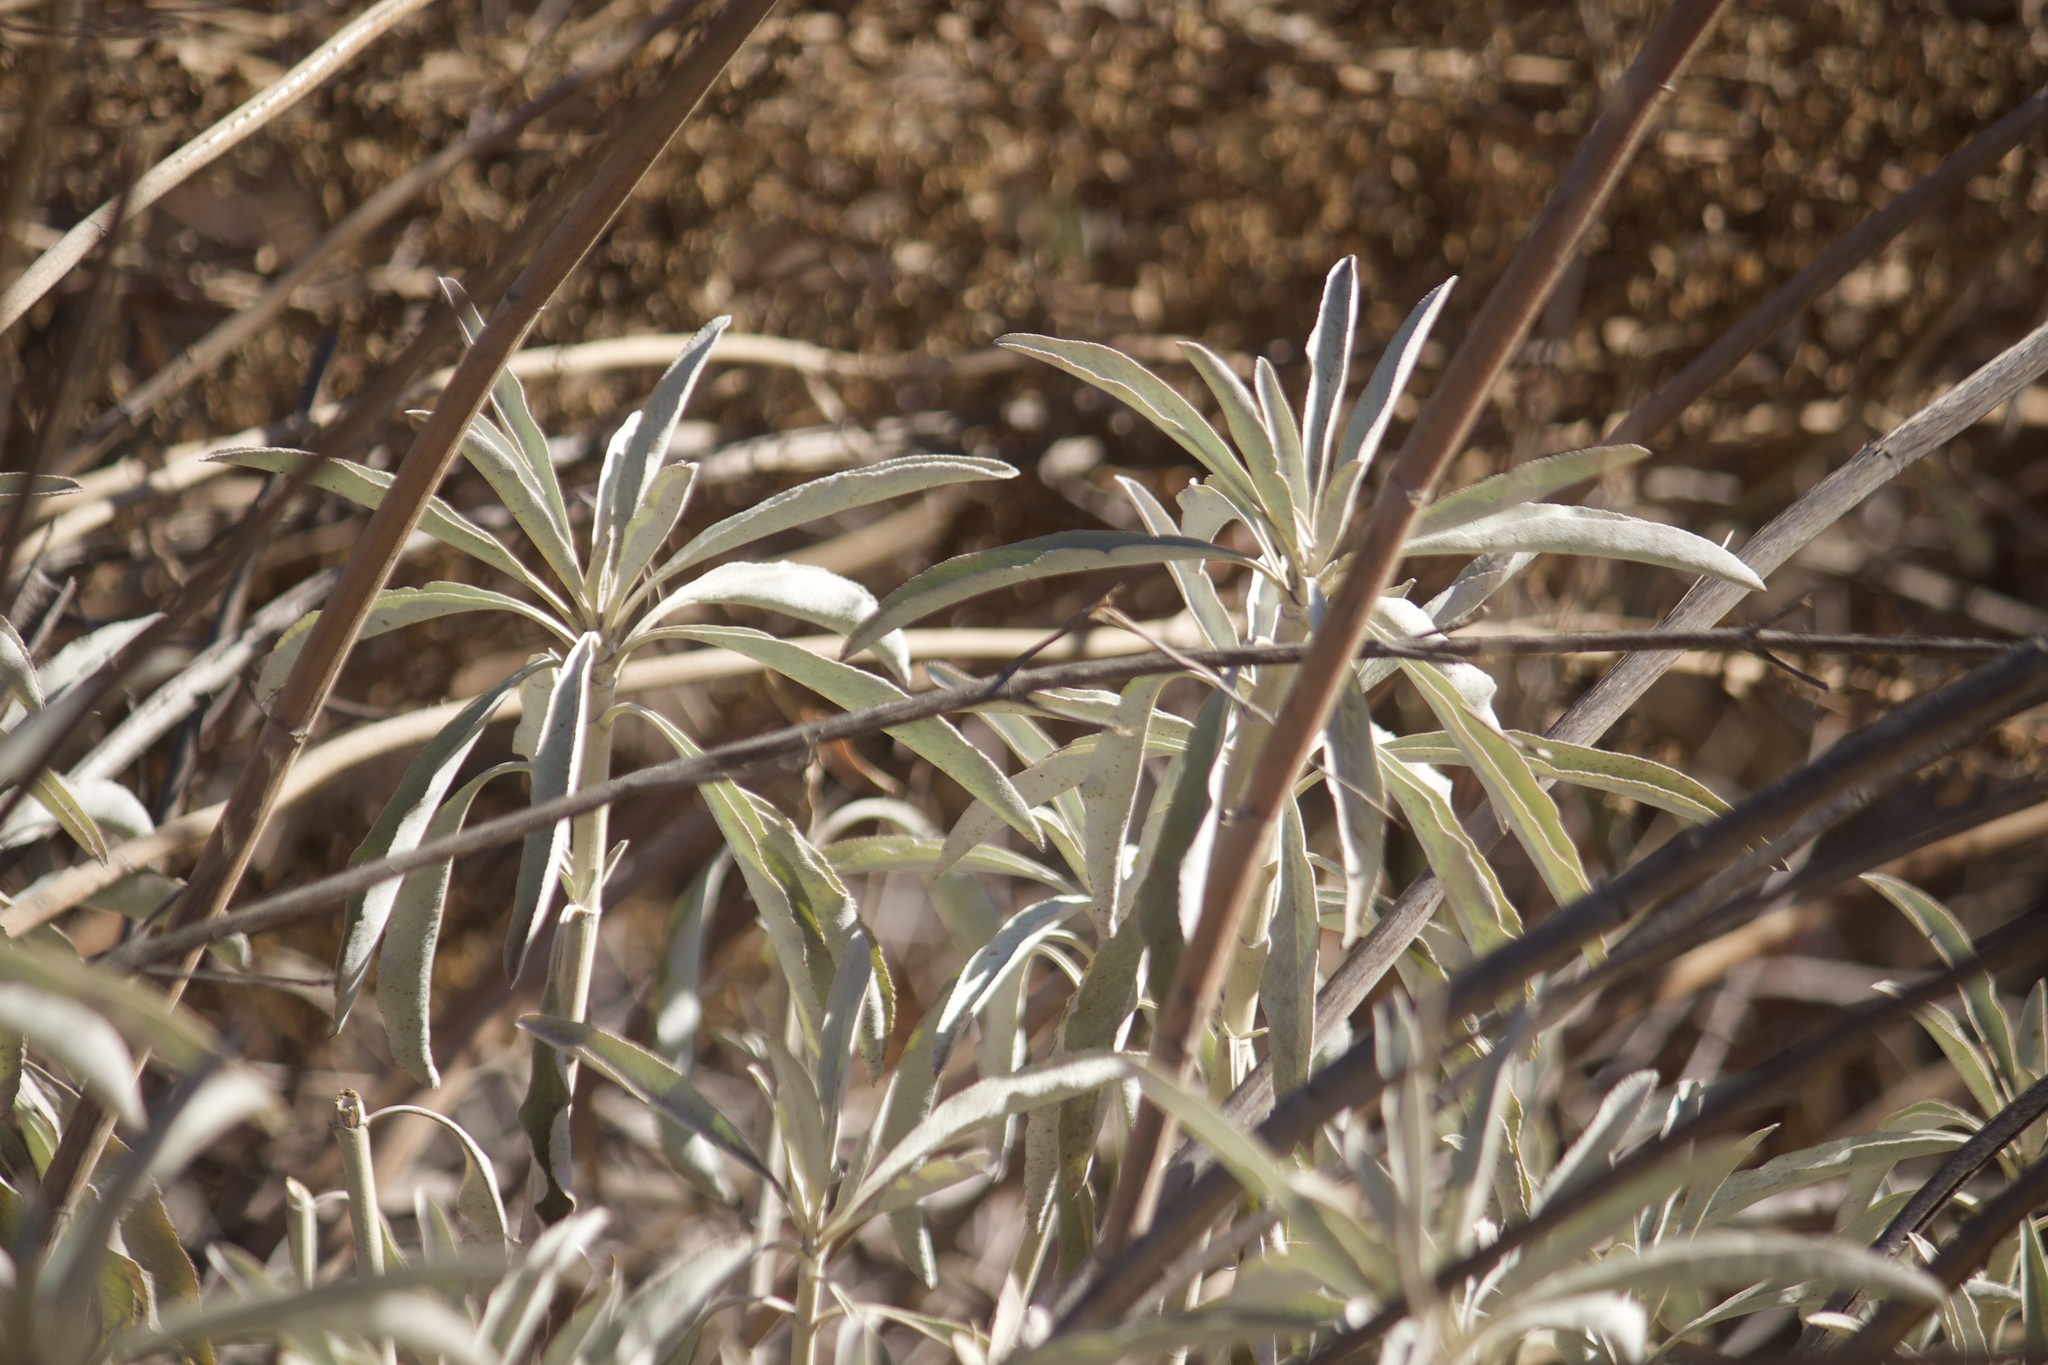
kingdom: Plantae
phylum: Tracheophyta
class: Magnoliopsida
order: Lamiales
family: Lamiaceae
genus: Salvia
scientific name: Salvia apiana
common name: White sage
